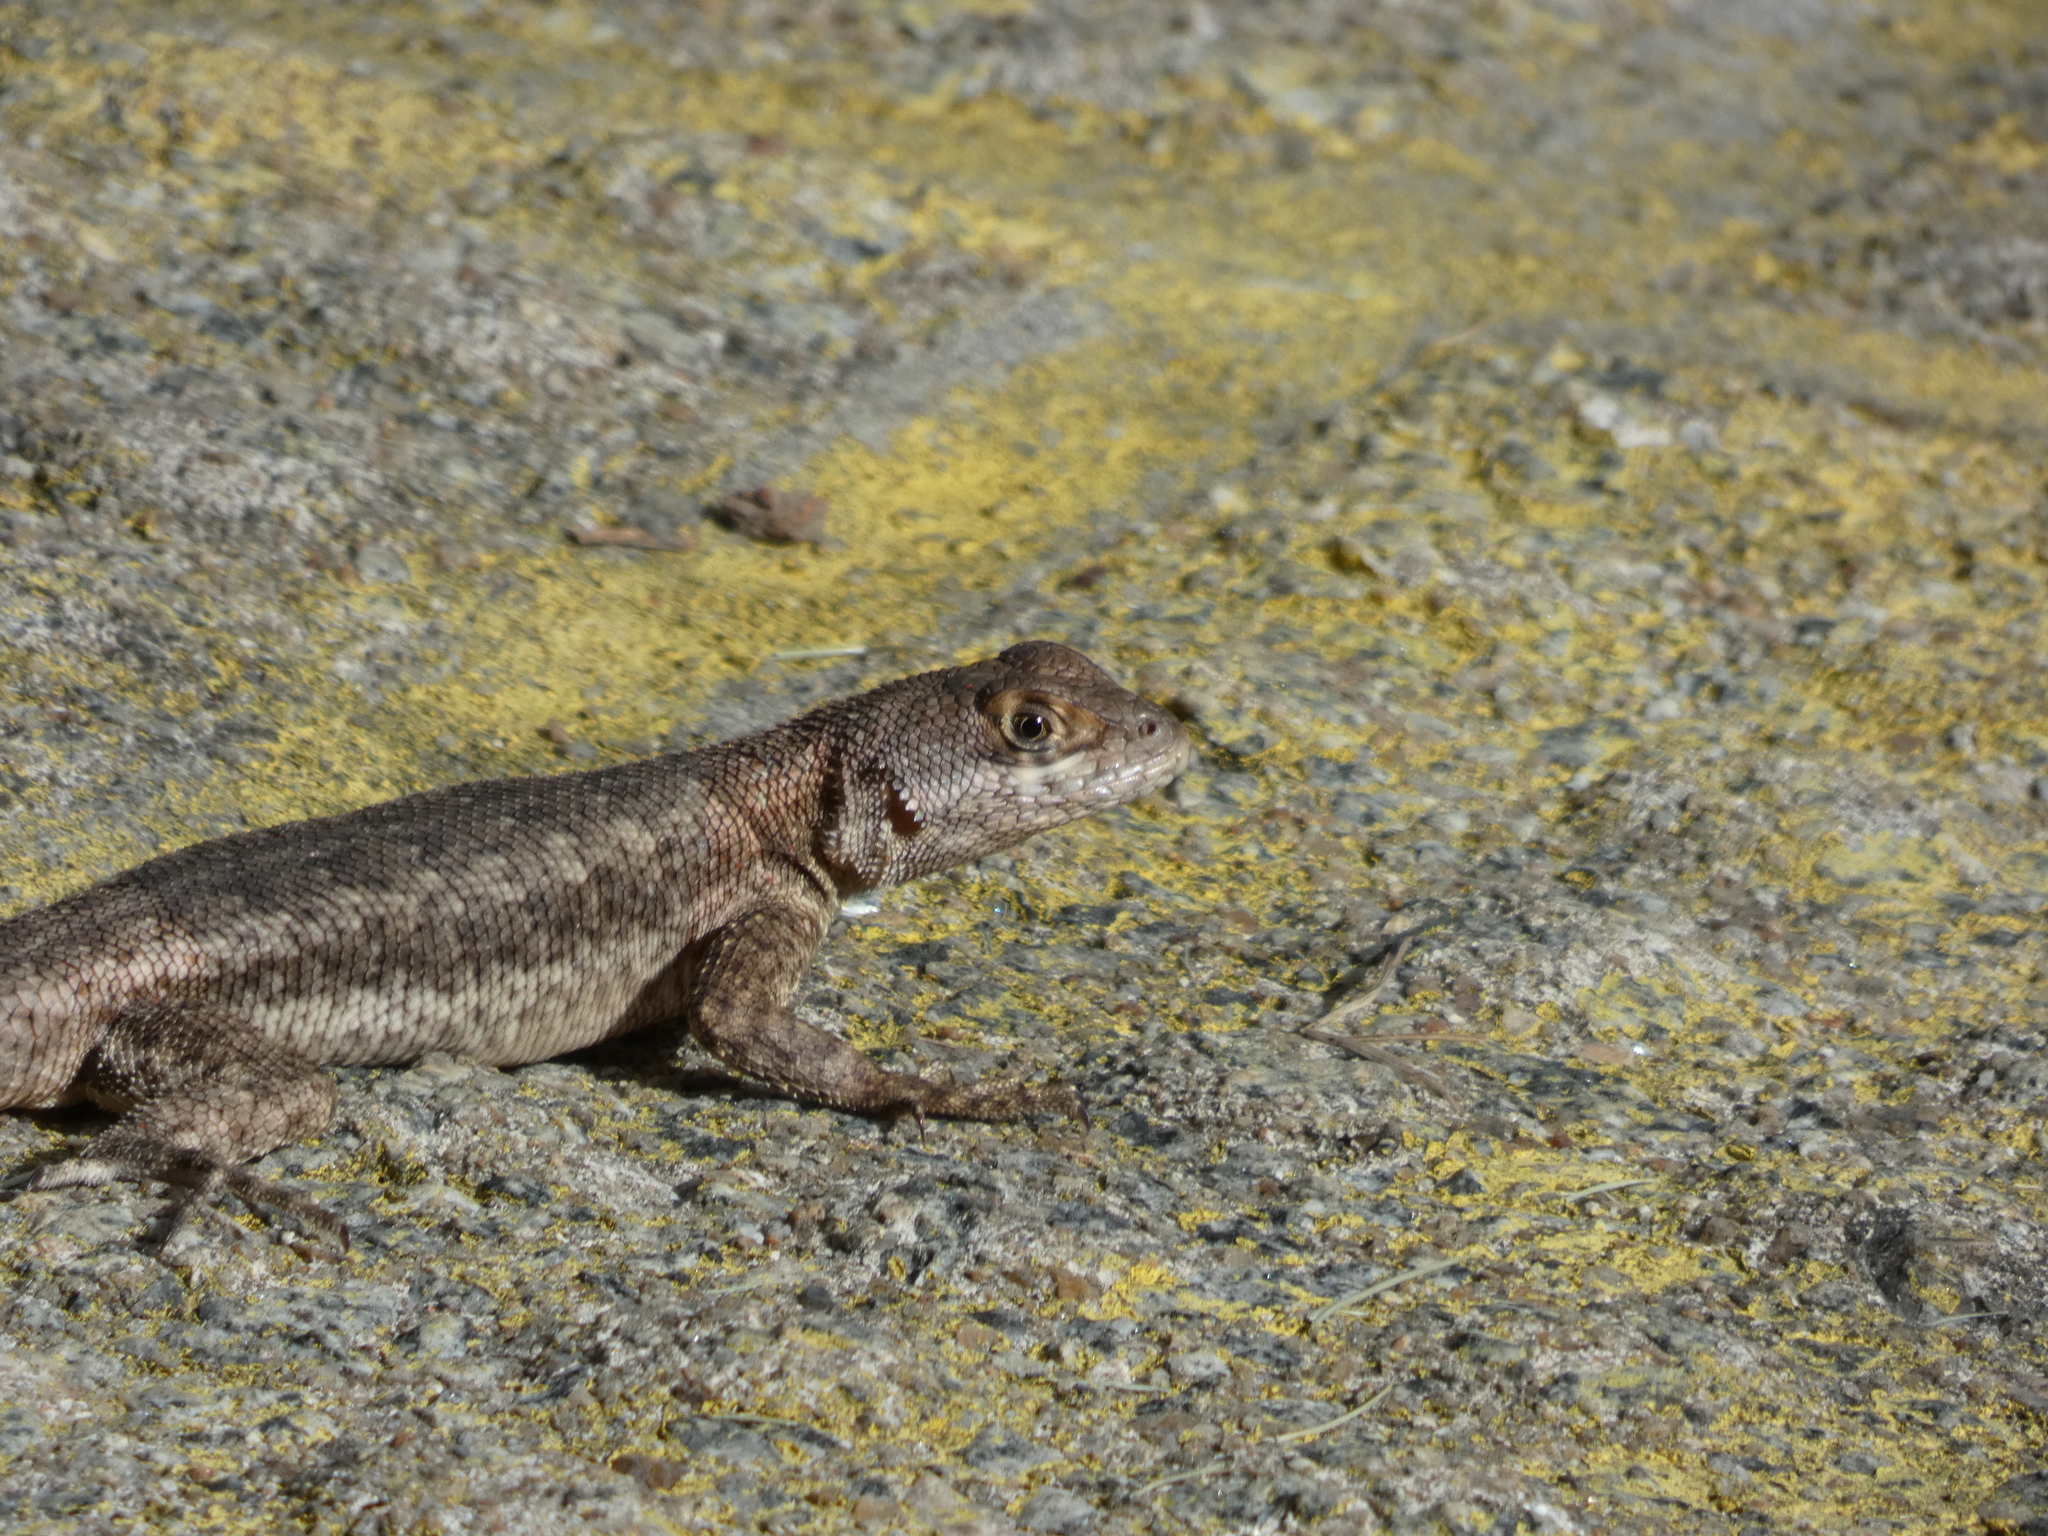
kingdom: Animalia
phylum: Chordata
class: Squamata
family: Tropiduridae
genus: Tropidurus
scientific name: Tropidurus hispidus
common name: Peters' lava lizard
